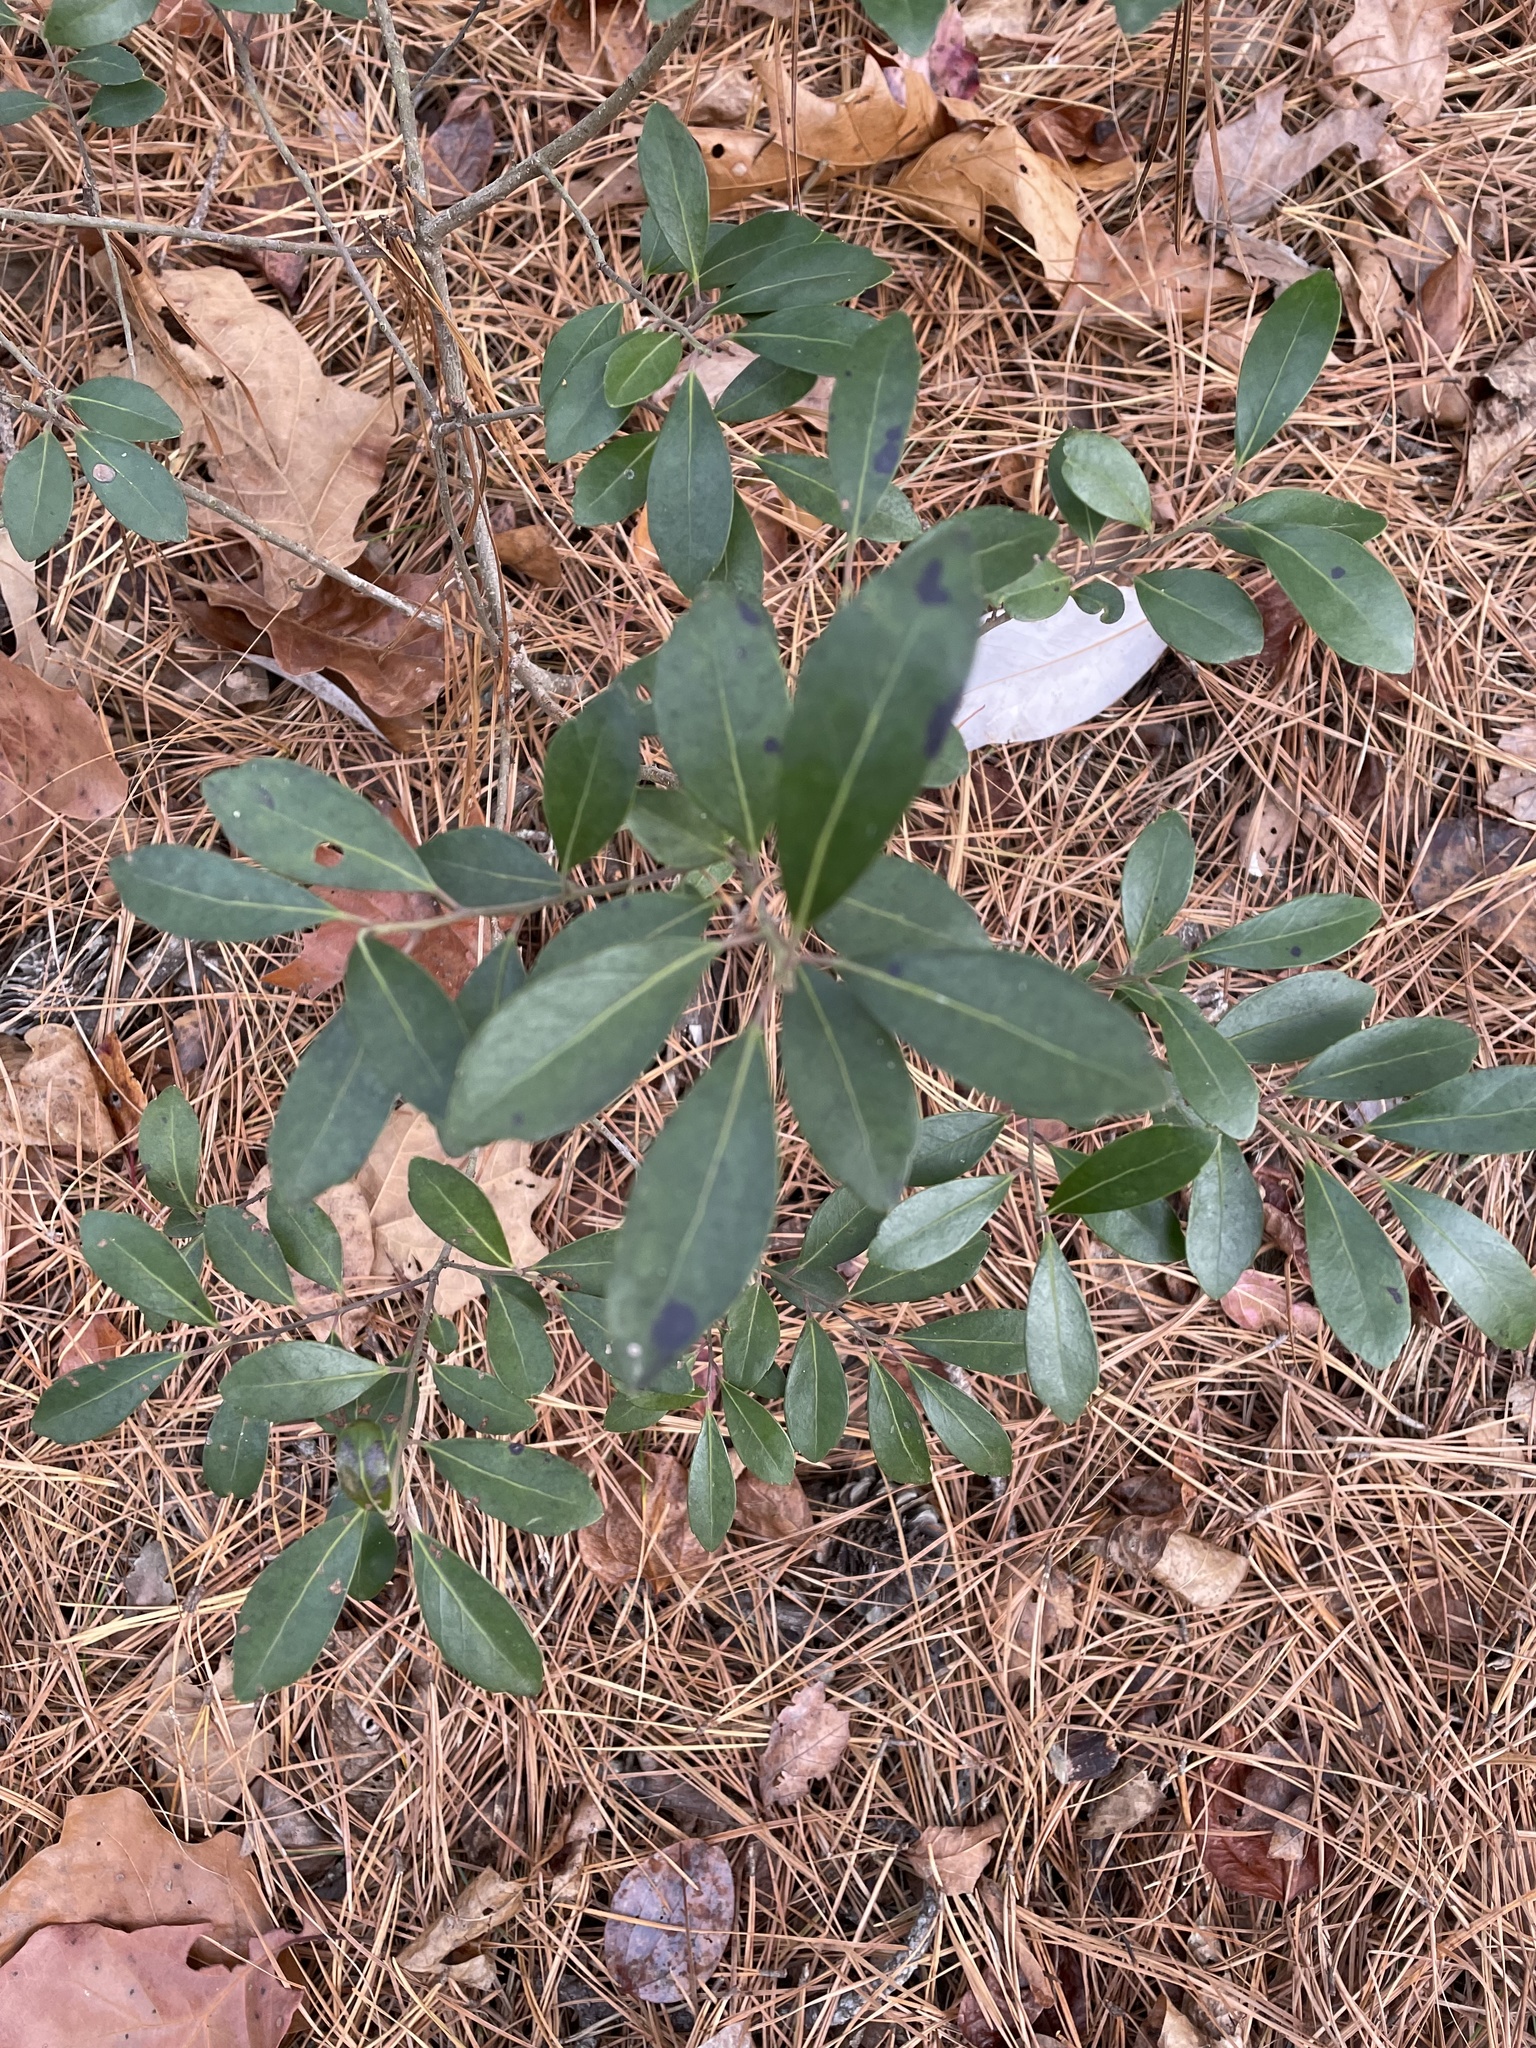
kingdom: Plantae
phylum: Tracheophyta
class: Magnoliopsida
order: Aquifoliales
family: Aquifoliaceae
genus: Ilex
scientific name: Ilex glabra
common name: Bitter gallberry
